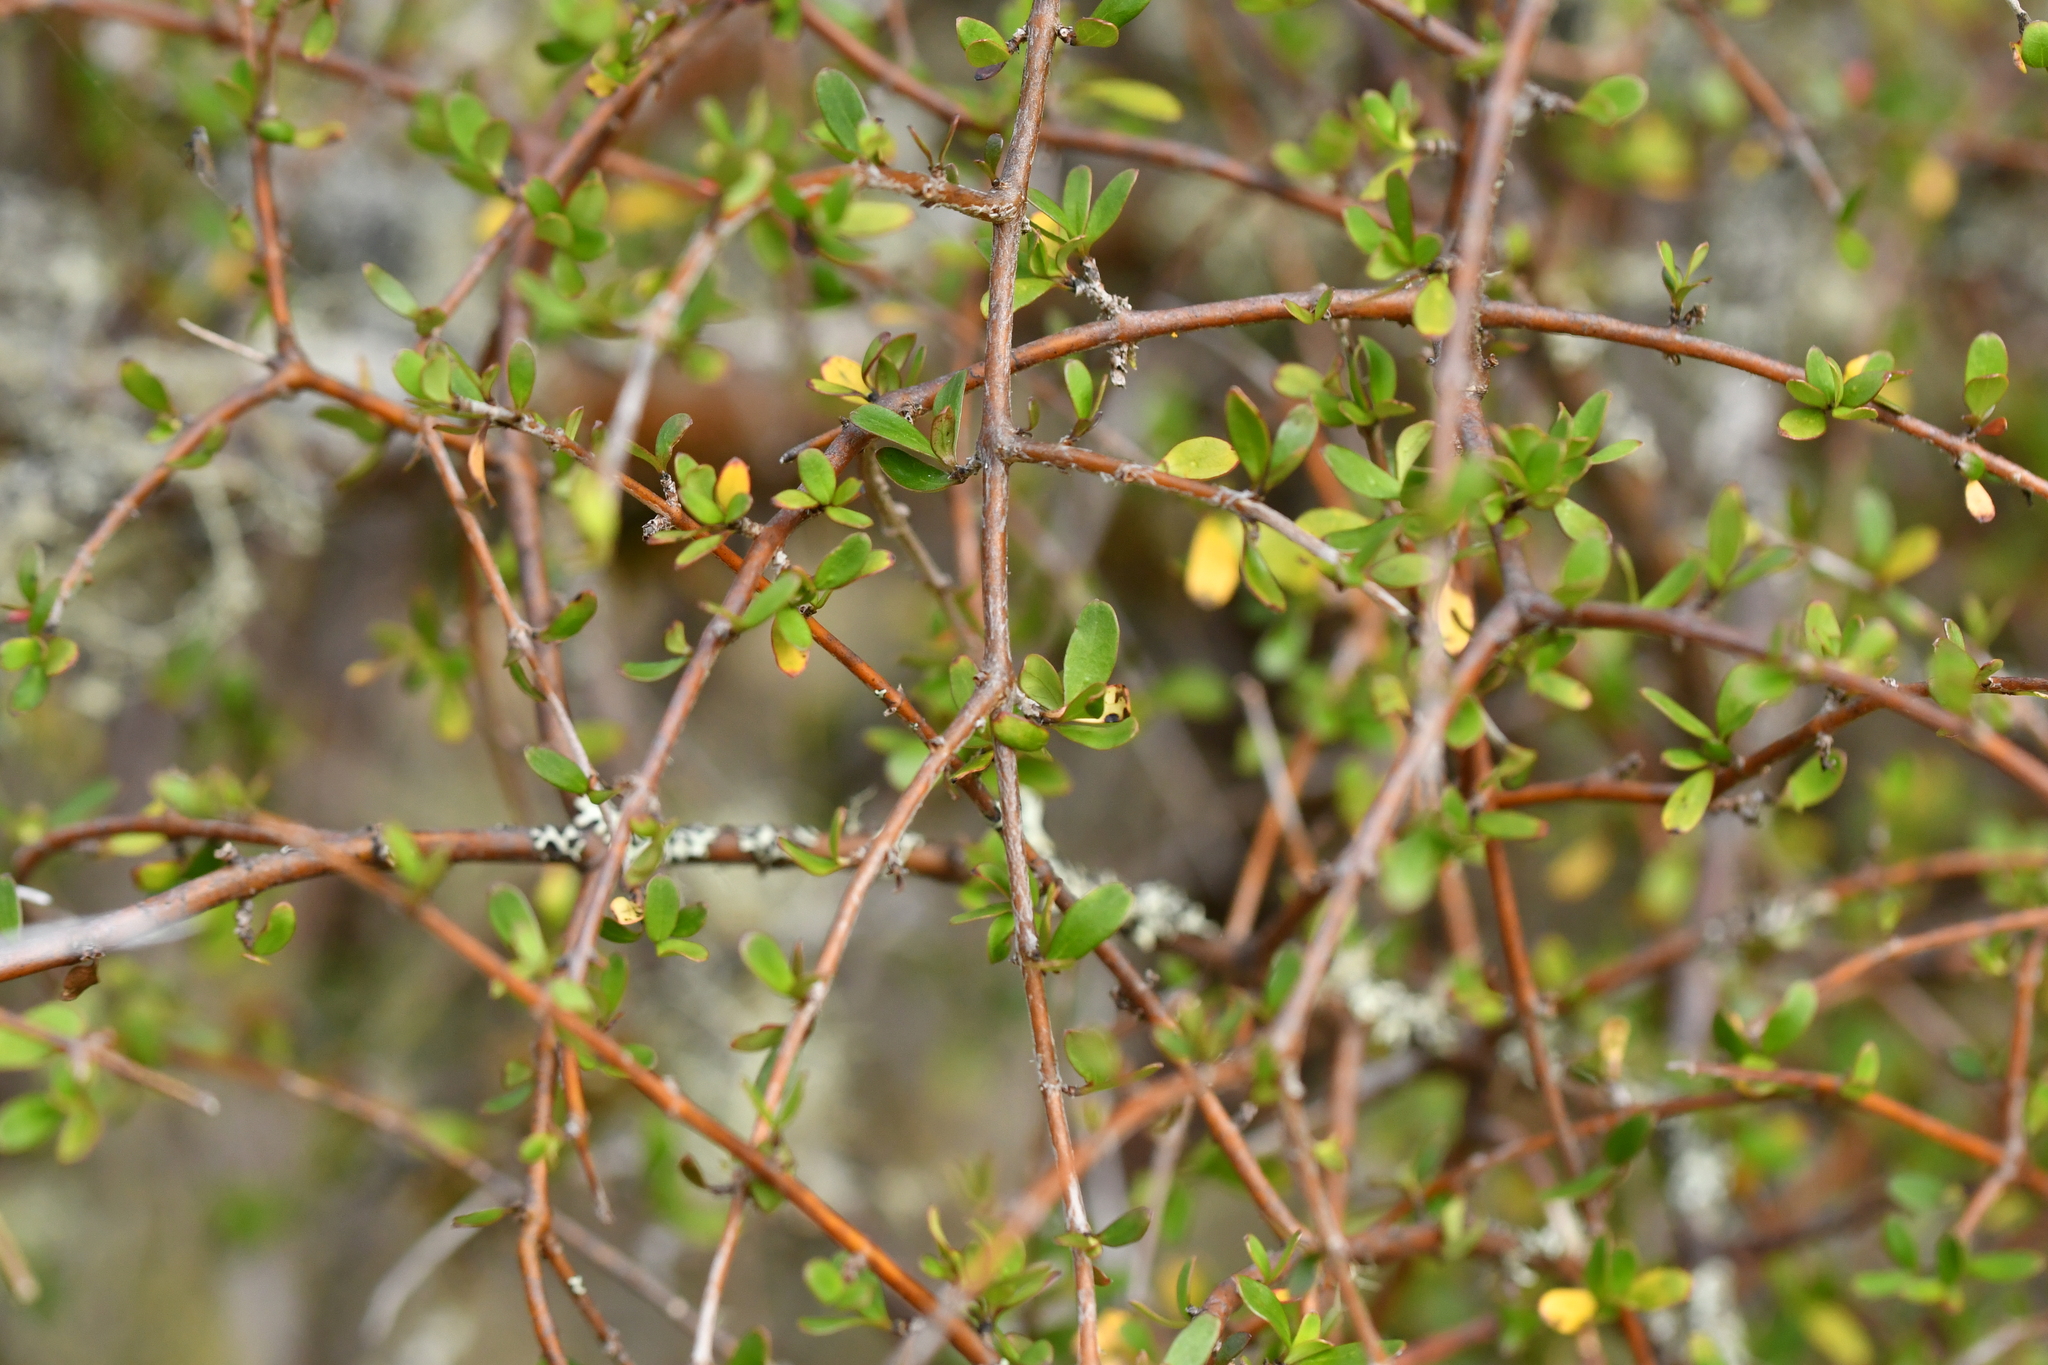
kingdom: Plantae
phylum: Tracheophyta
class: Magnoliopsida
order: Gentianales
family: Rubiaceae
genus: Coprosma
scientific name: Coprosma rigida
